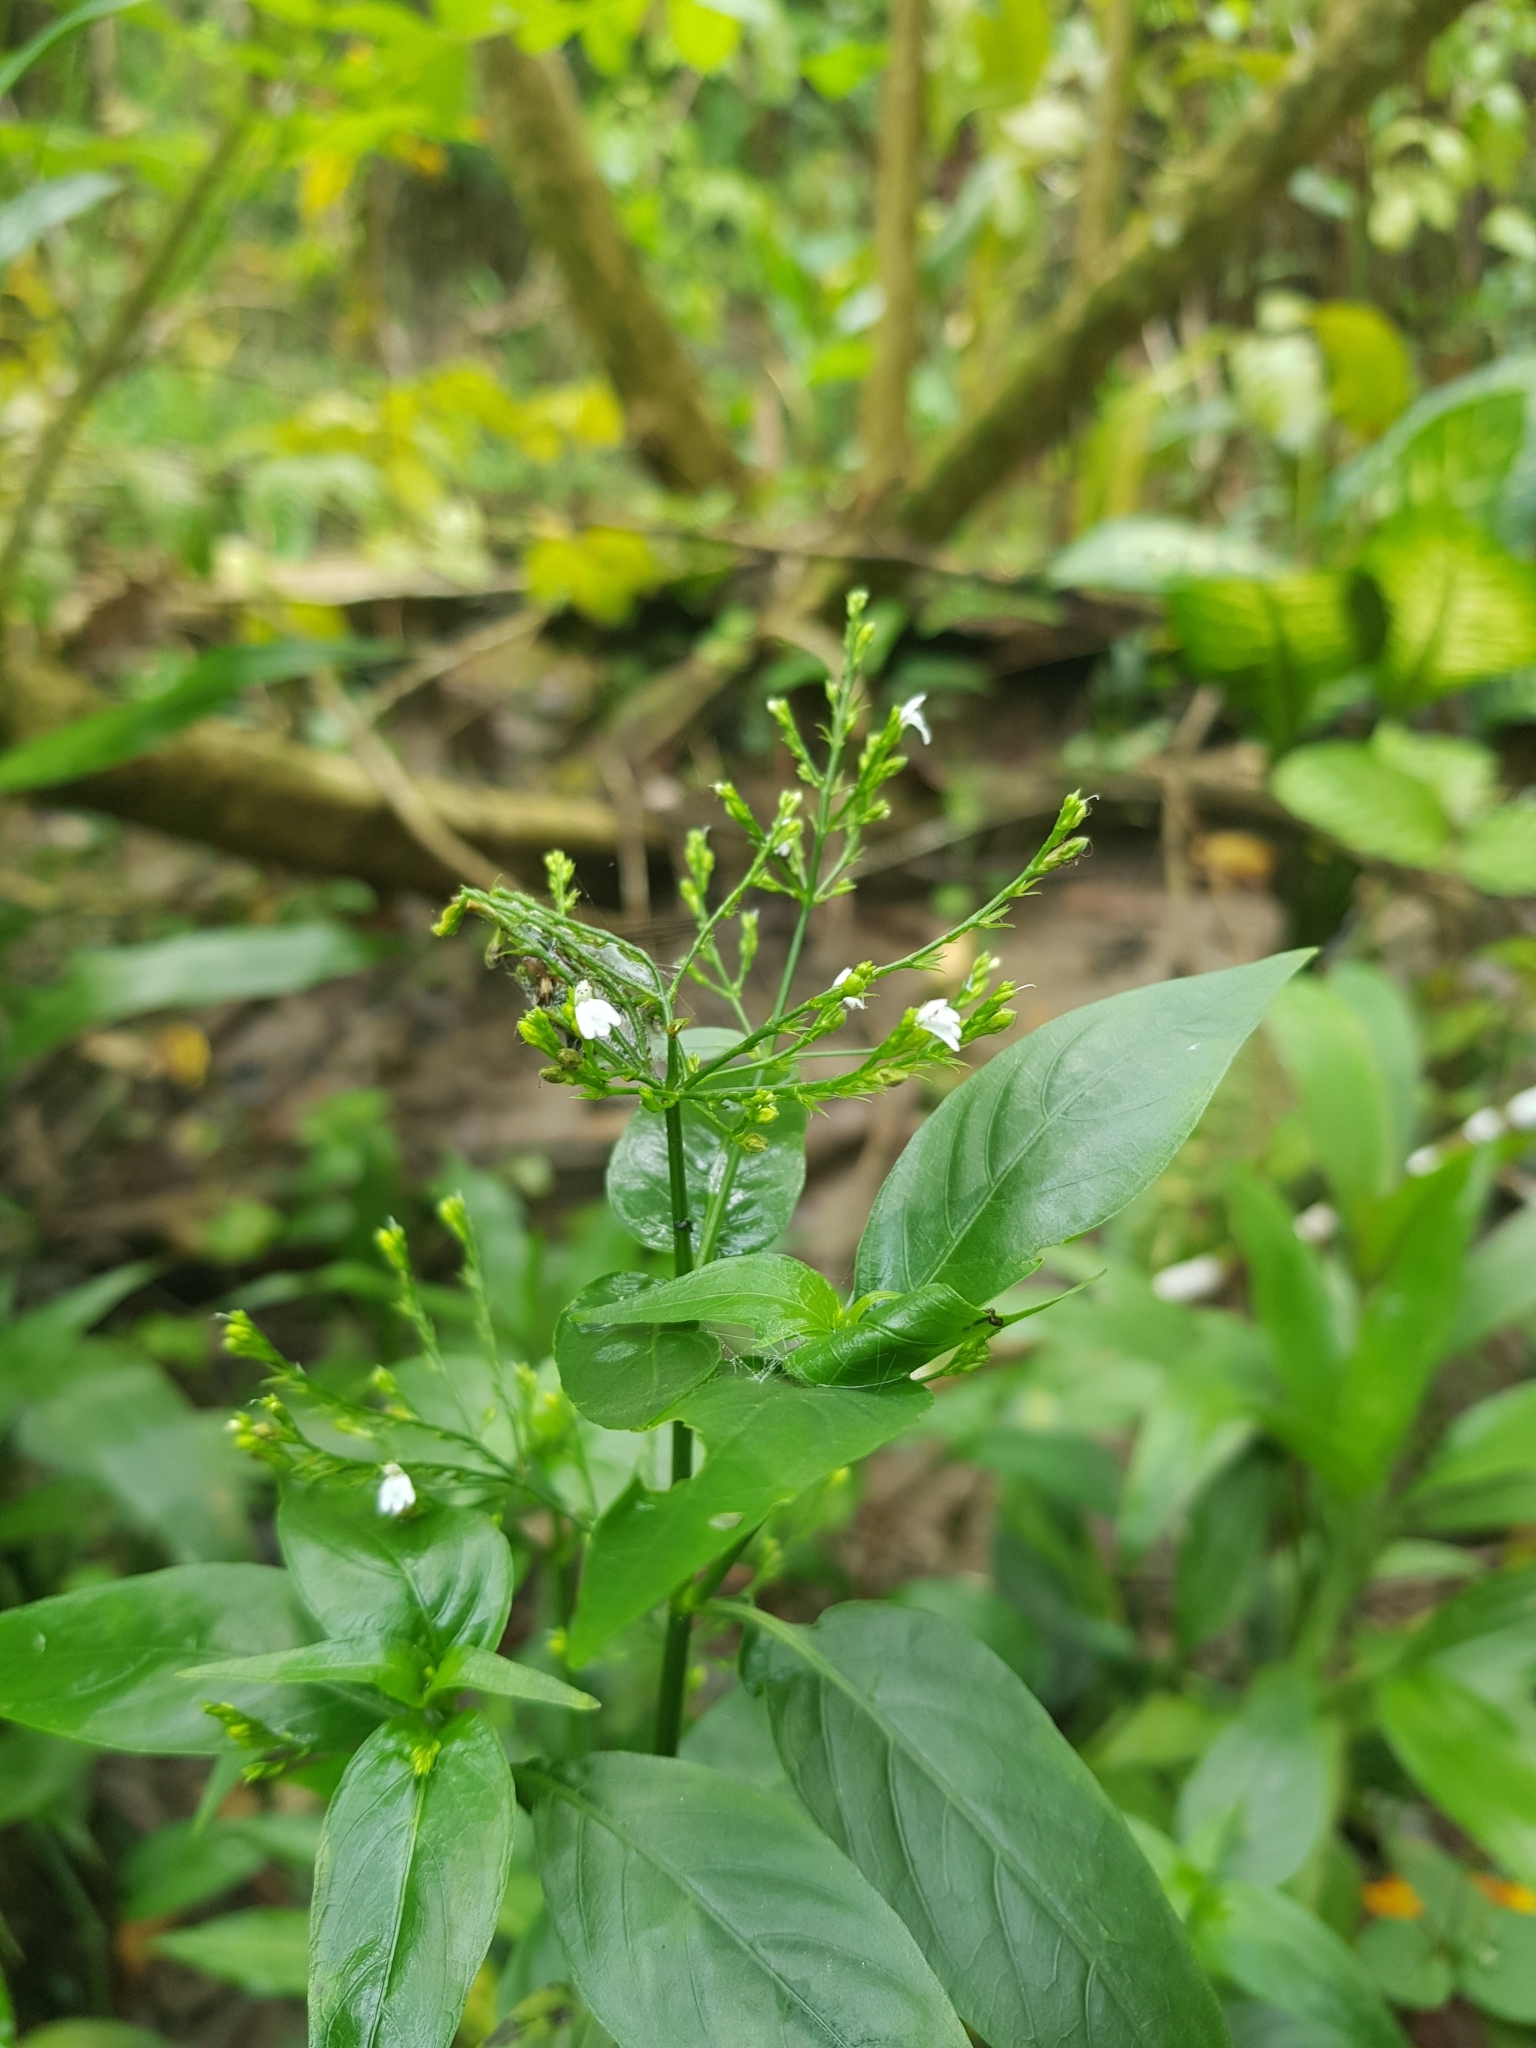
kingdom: Plantae
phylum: Tracheophyta
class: Magnoliopsida
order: Lamiales
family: Acanthaceae
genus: Justicia
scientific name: Justicia comata
